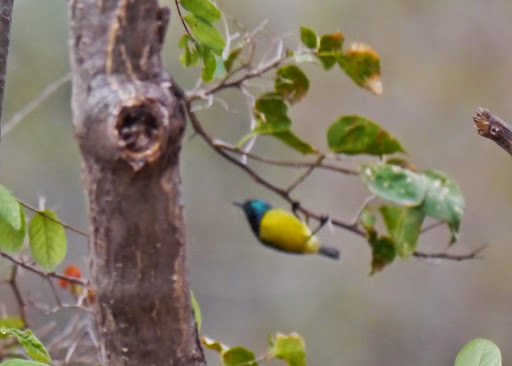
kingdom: Animalia
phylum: Chordata
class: Aves
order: Passeriformes
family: Nectariniidae
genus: Hedydipna
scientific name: Hedydipna collaris
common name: Collared sunbird
